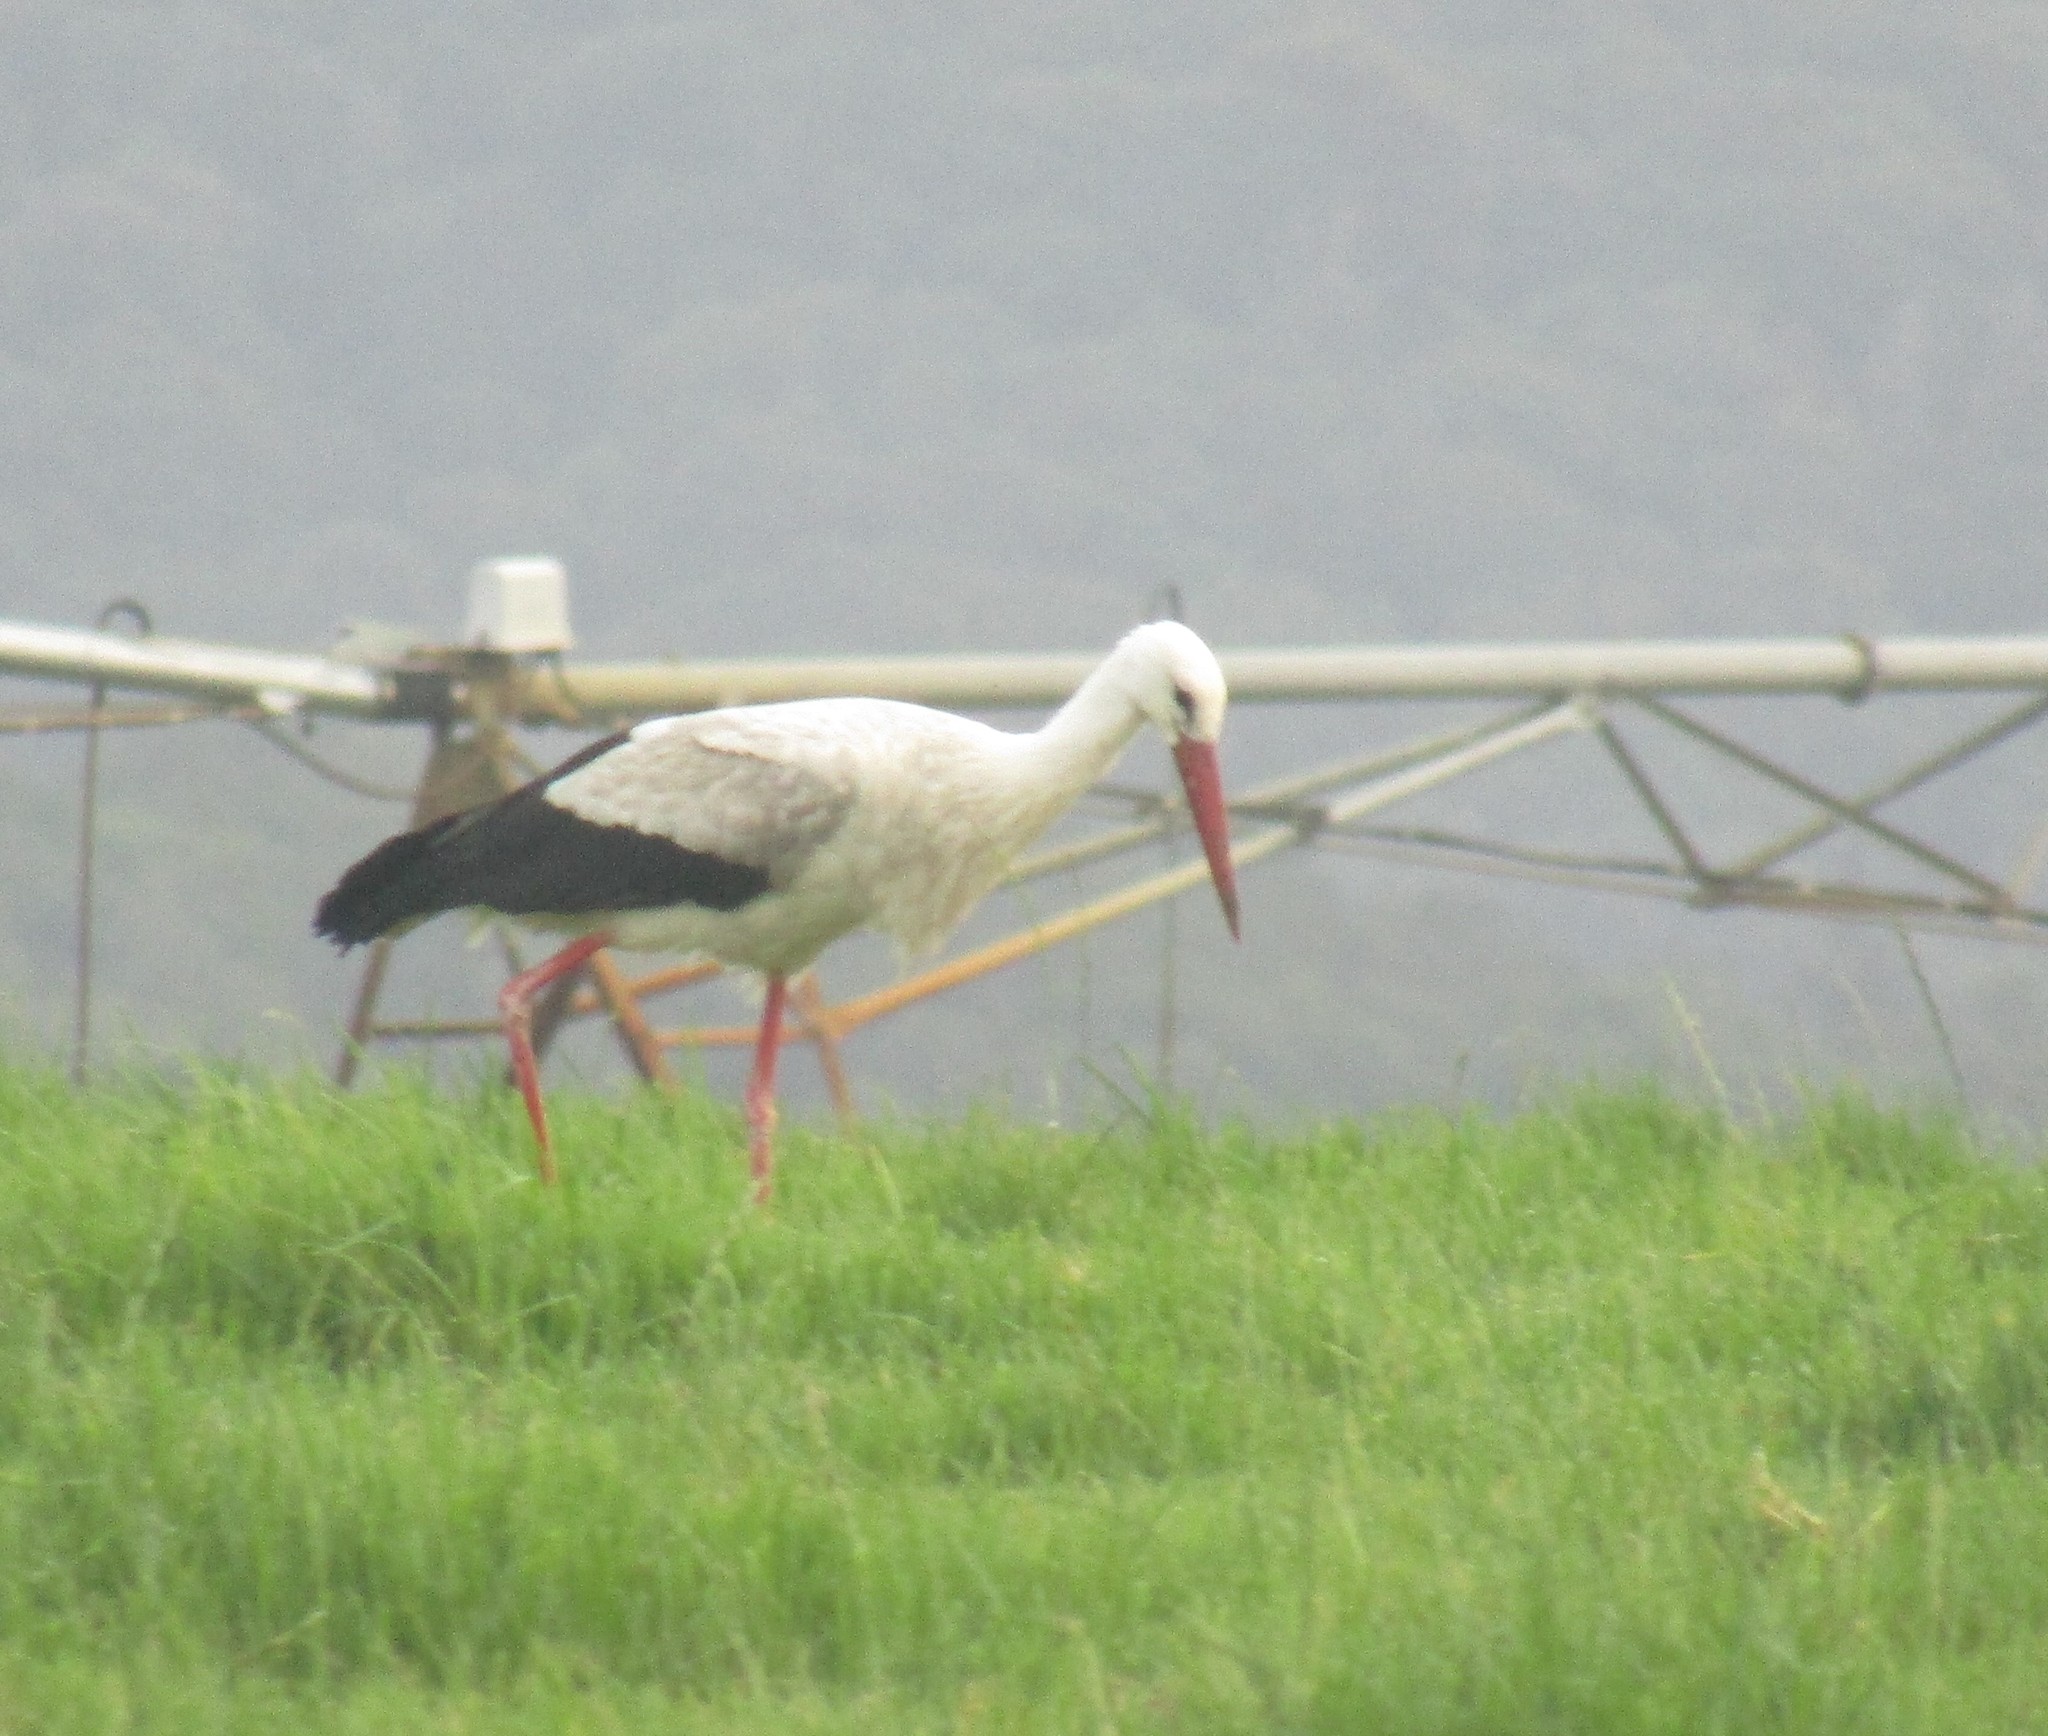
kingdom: Animalia
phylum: Chordata
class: Aves
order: Ciconiiformes
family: Ciconiidae
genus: Ciconia
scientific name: Ciconia ciconia
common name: White stork
